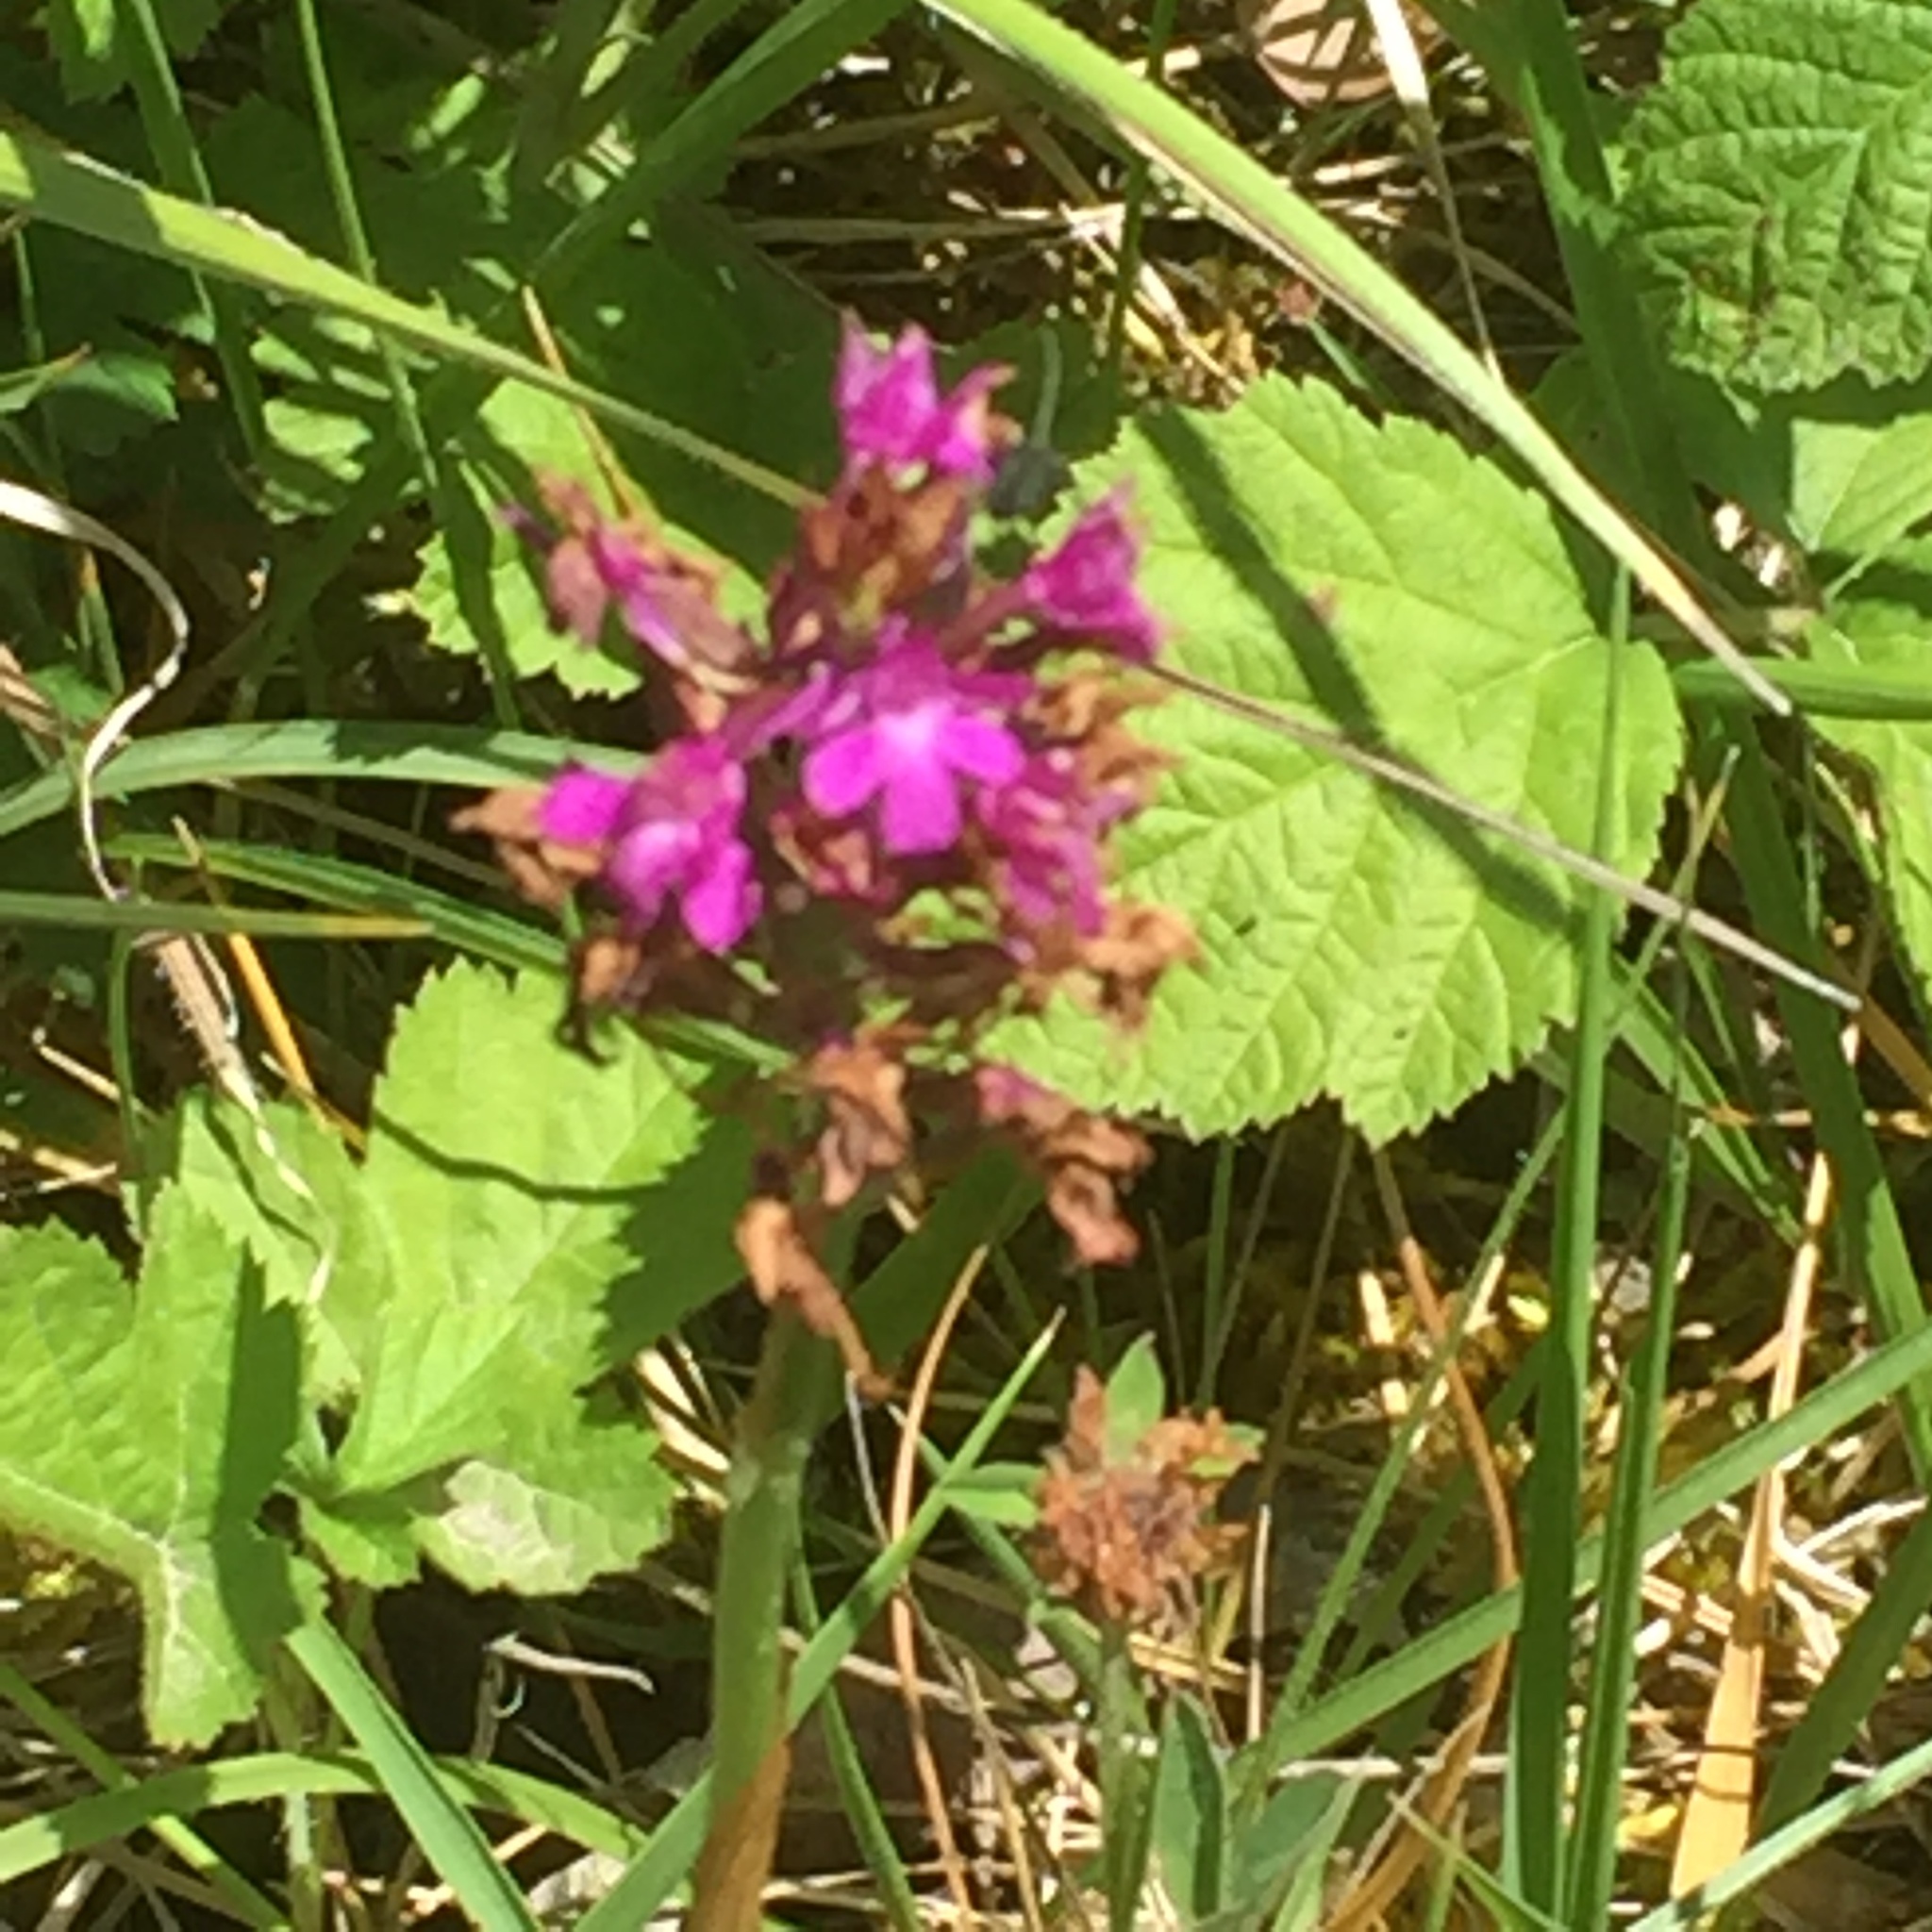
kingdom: Plantae
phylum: Tracheophyta
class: Liliopsida
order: Asparagales
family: Orchidaceae
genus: Anacamptis
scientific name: Anacamptis pyramidalis
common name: Pyramidal orchid
